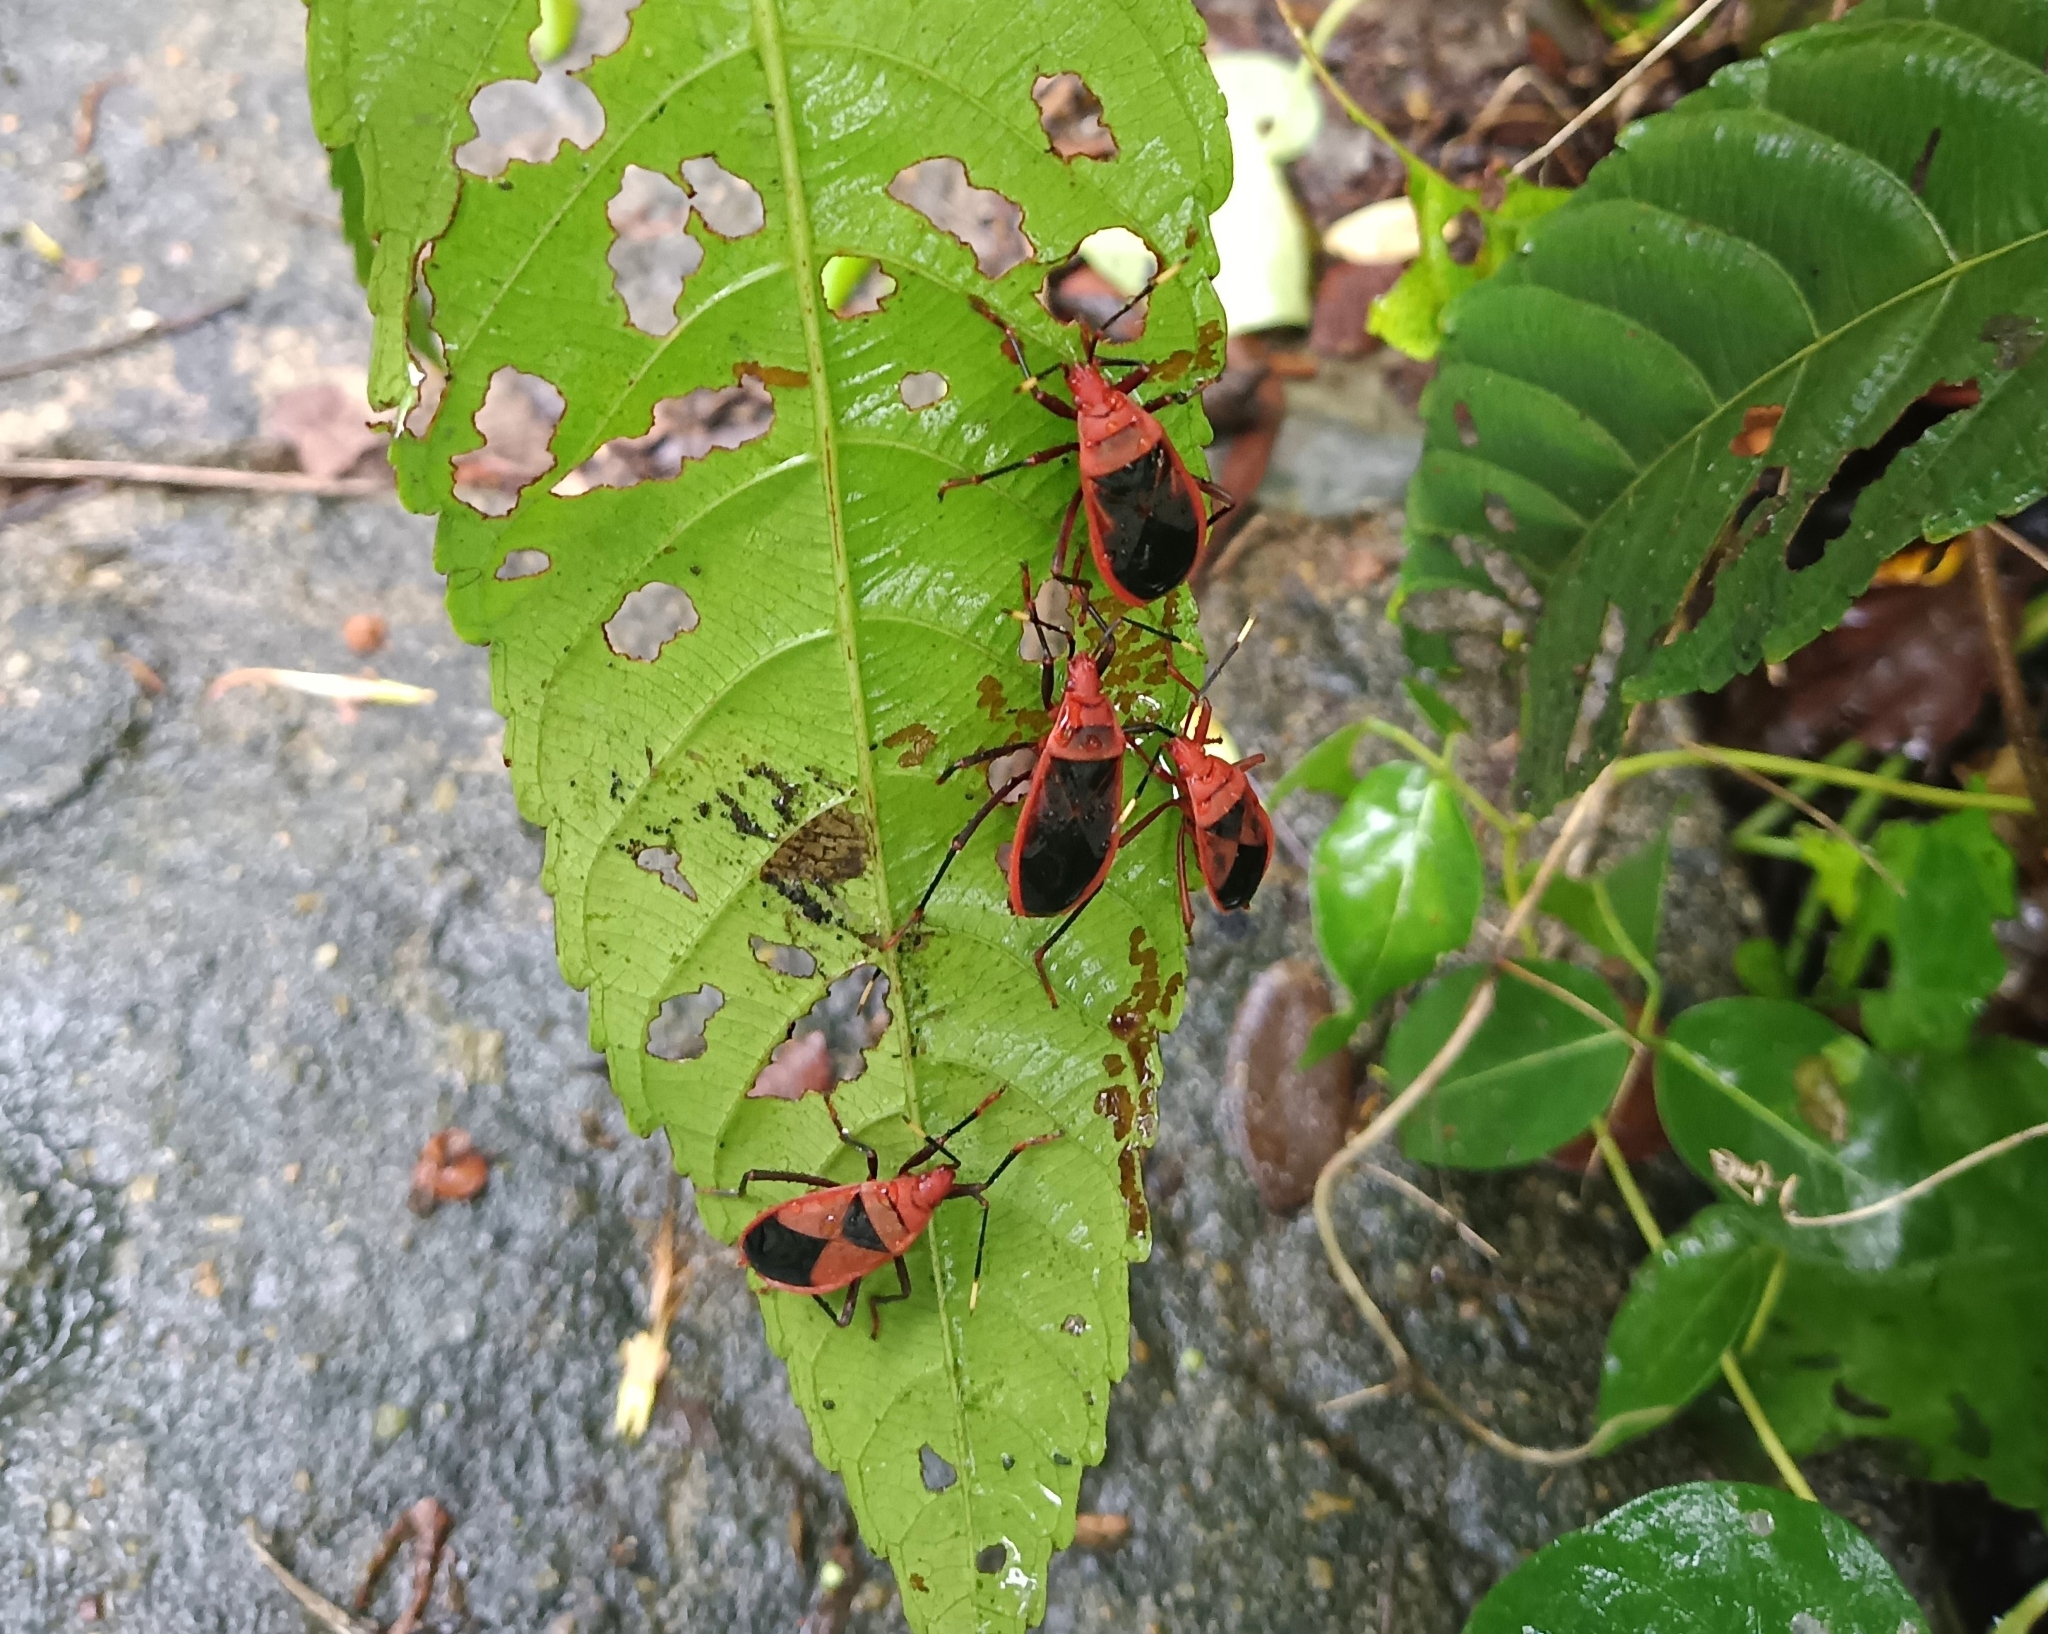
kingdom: Animalia
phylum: Arthropoda
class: Insecta
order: Hemiptera
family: Pyrrhocoridae
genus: Probergrothius
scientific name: Probergrothius
